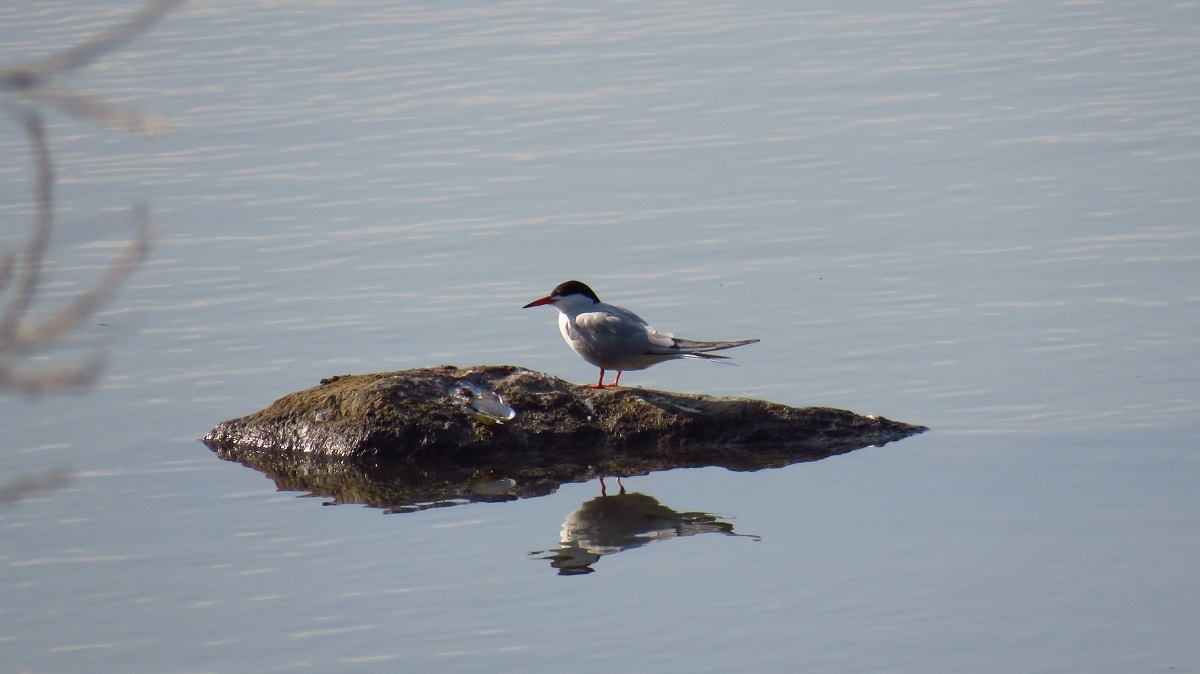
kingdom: Animalia
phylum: Chordata
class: Aves
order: Charadriiformes
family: Laridae
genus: Sterna
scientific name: Sterna hirundo
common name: Common tern
